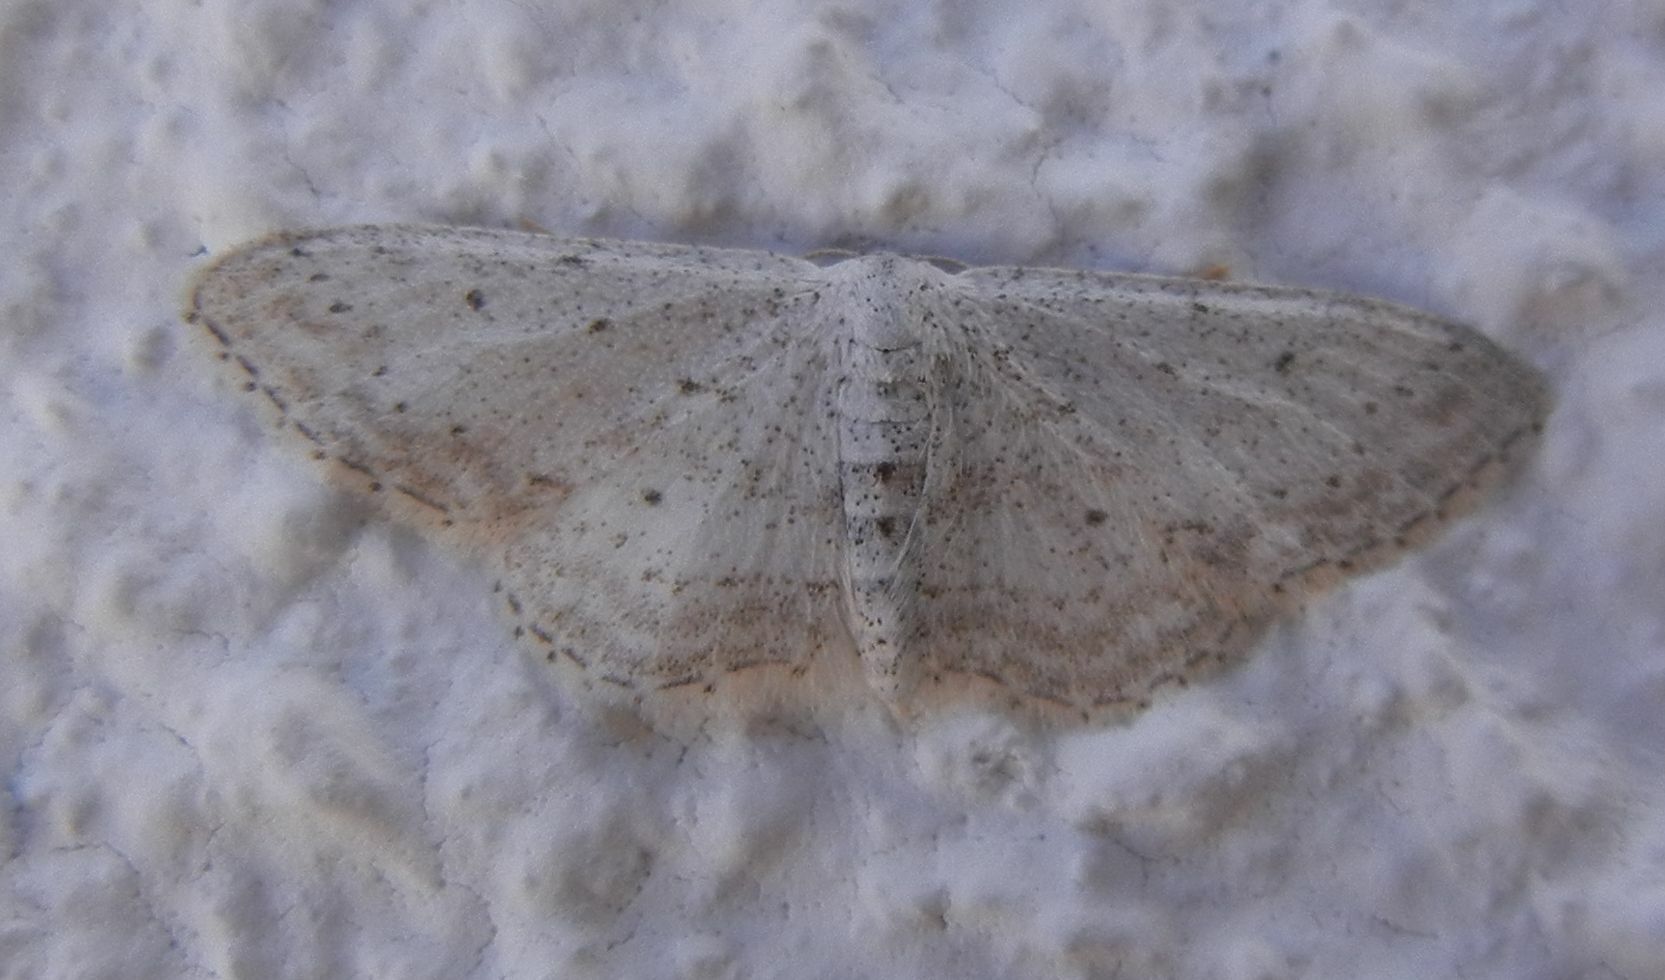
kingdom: Animalia
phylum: Arthropoda
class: Insecta
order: Lepidoptera
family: Geometridae
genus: Idaea
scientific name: Idaea incisaria
